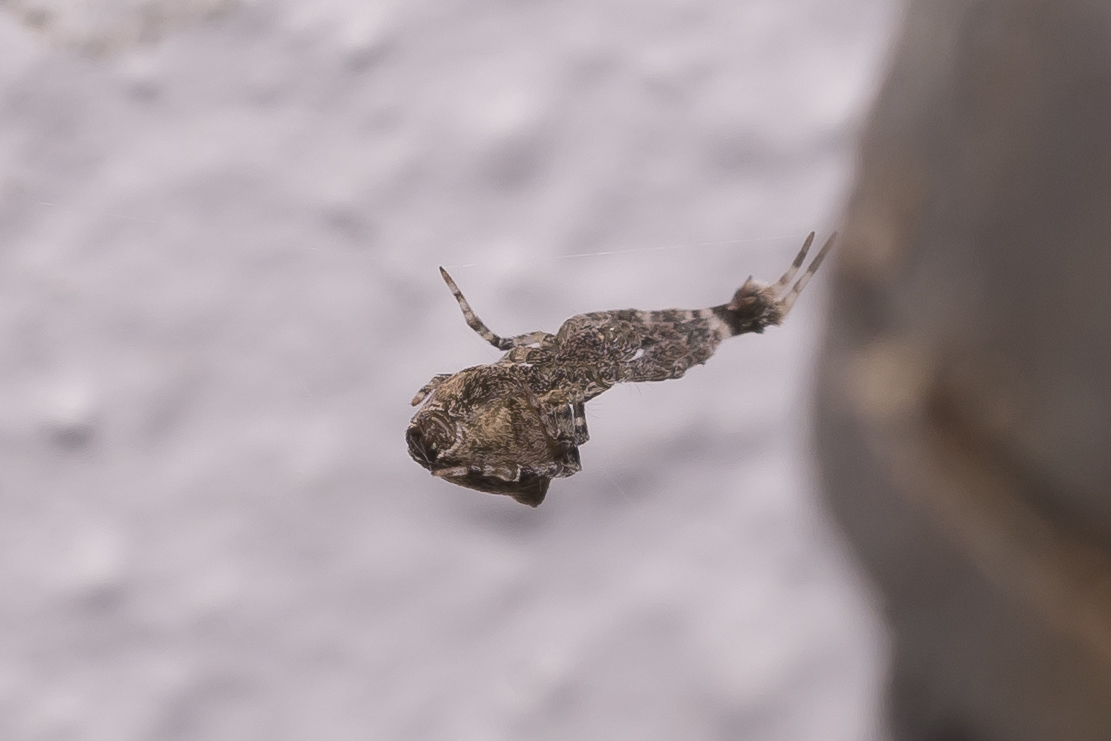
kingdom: Animalia
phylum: Arthropoda
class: Arachnida
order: Araneae
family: Uloboridae
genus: Uloborus
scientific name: Uloborus plumipes
